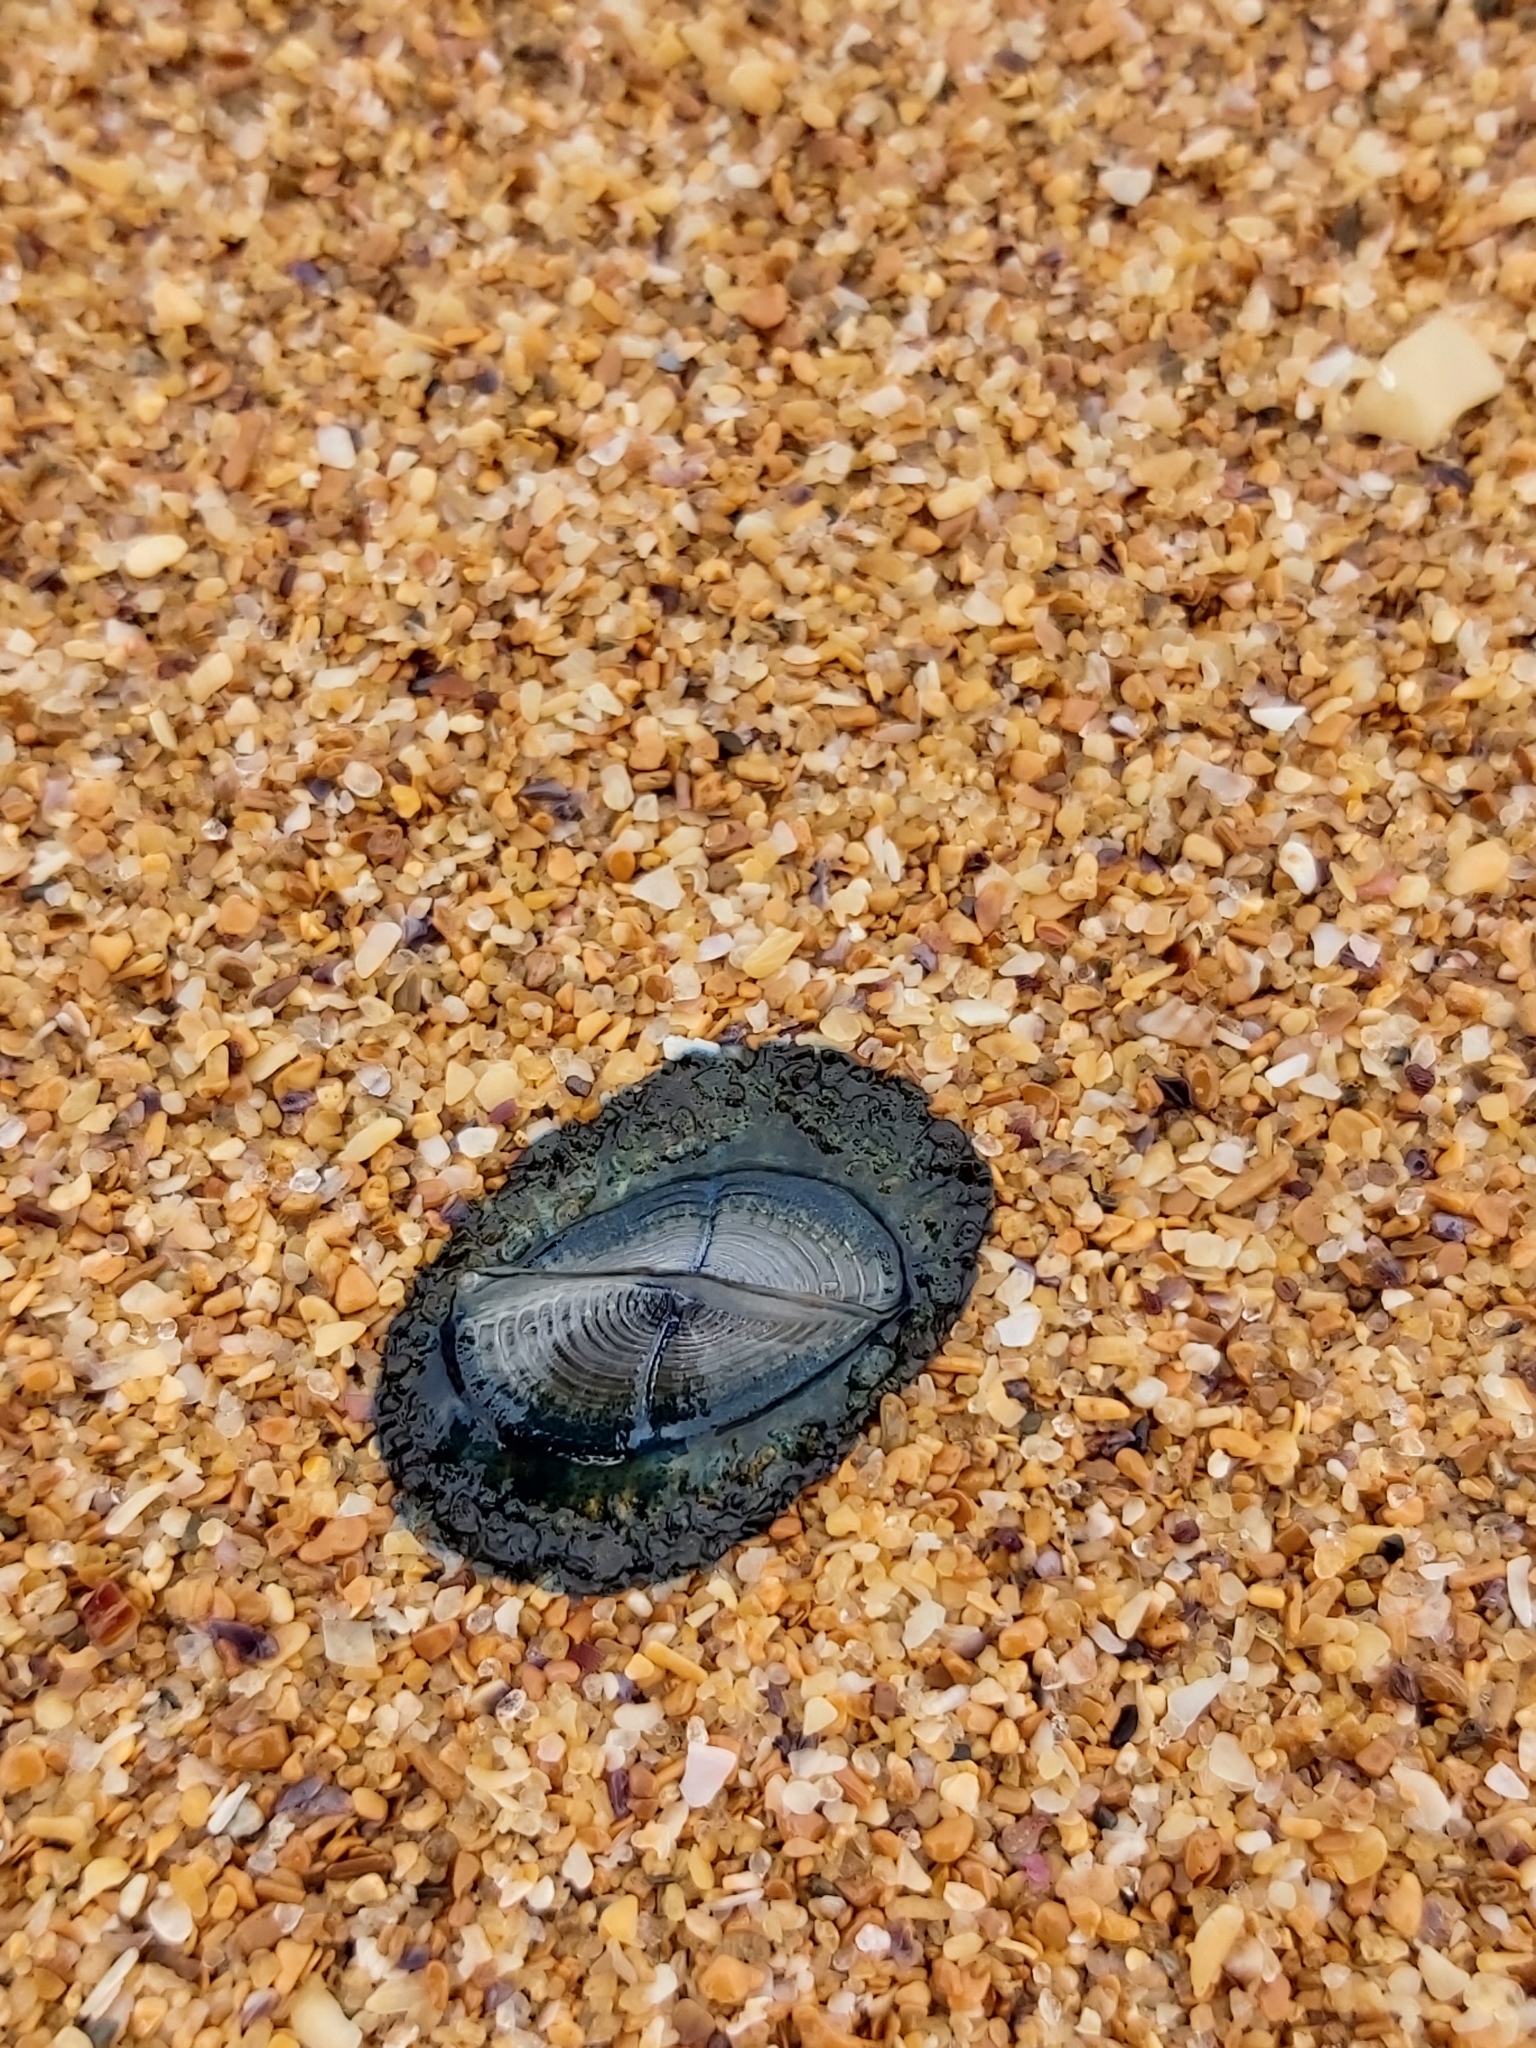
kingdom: Animalia
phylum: Cnidaria
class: Hydrozoa
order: Anthoathecata
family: Porpitidae
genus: Velella
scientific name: Velella velella
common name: By-the-wind-sailor
